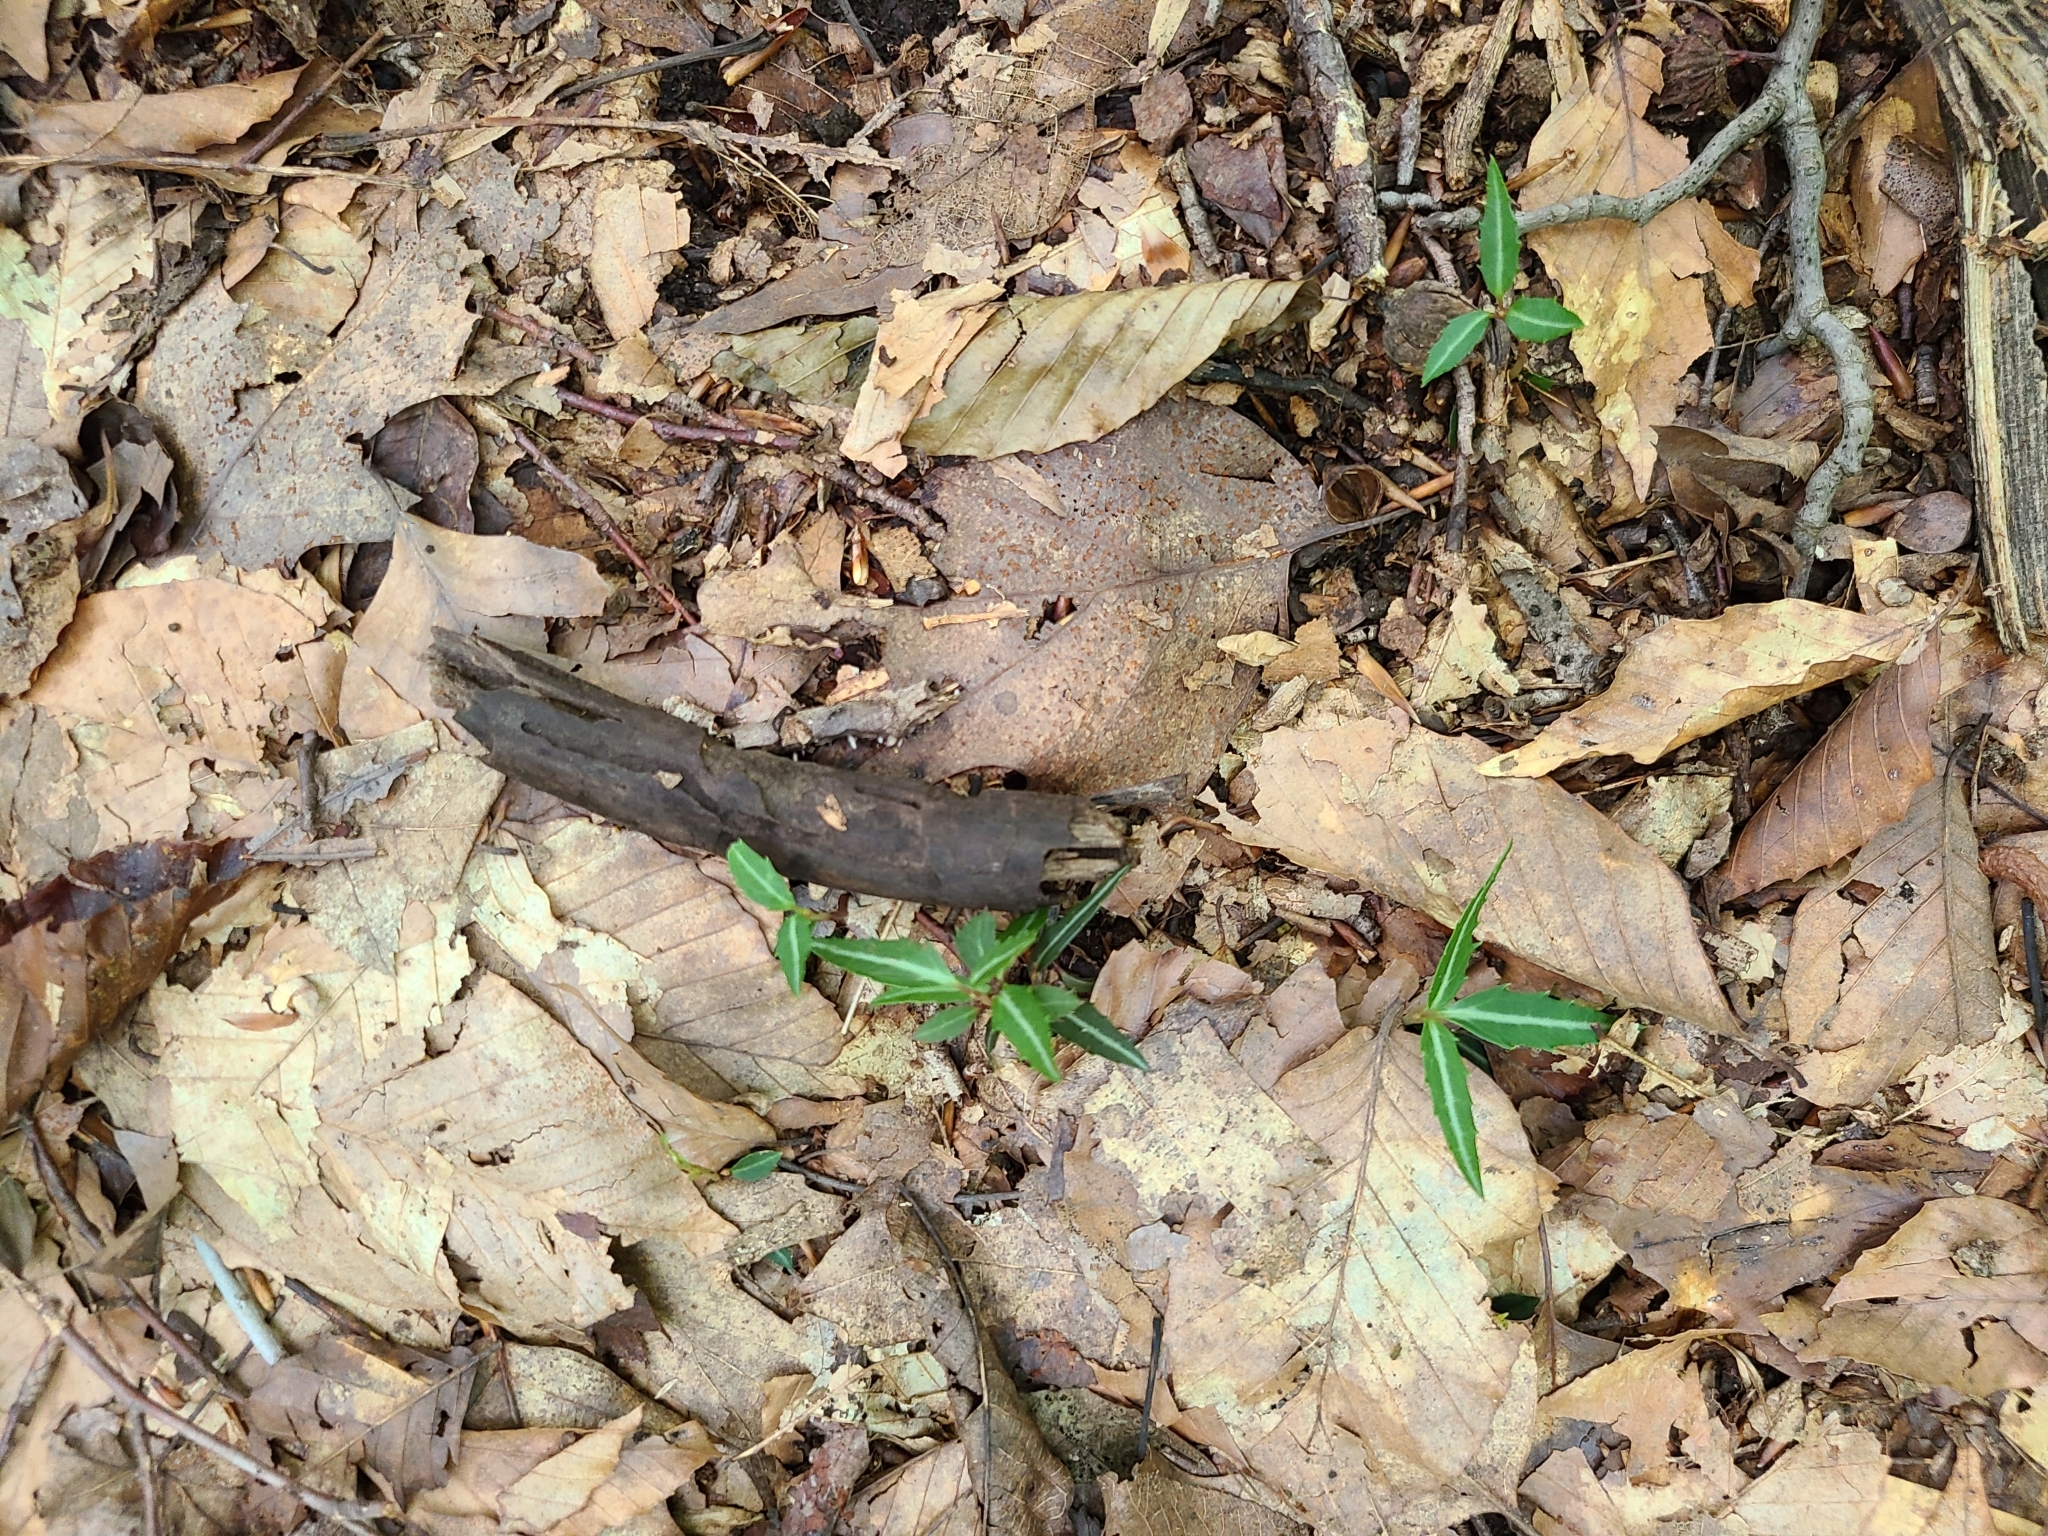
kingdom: Plantae
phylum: Tracheophyta
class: Magnoliopsida
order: Ericales
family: Ericaceae
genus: Chimaphila
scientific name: Chimaphila maculata
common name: Spotted pipsissewa
